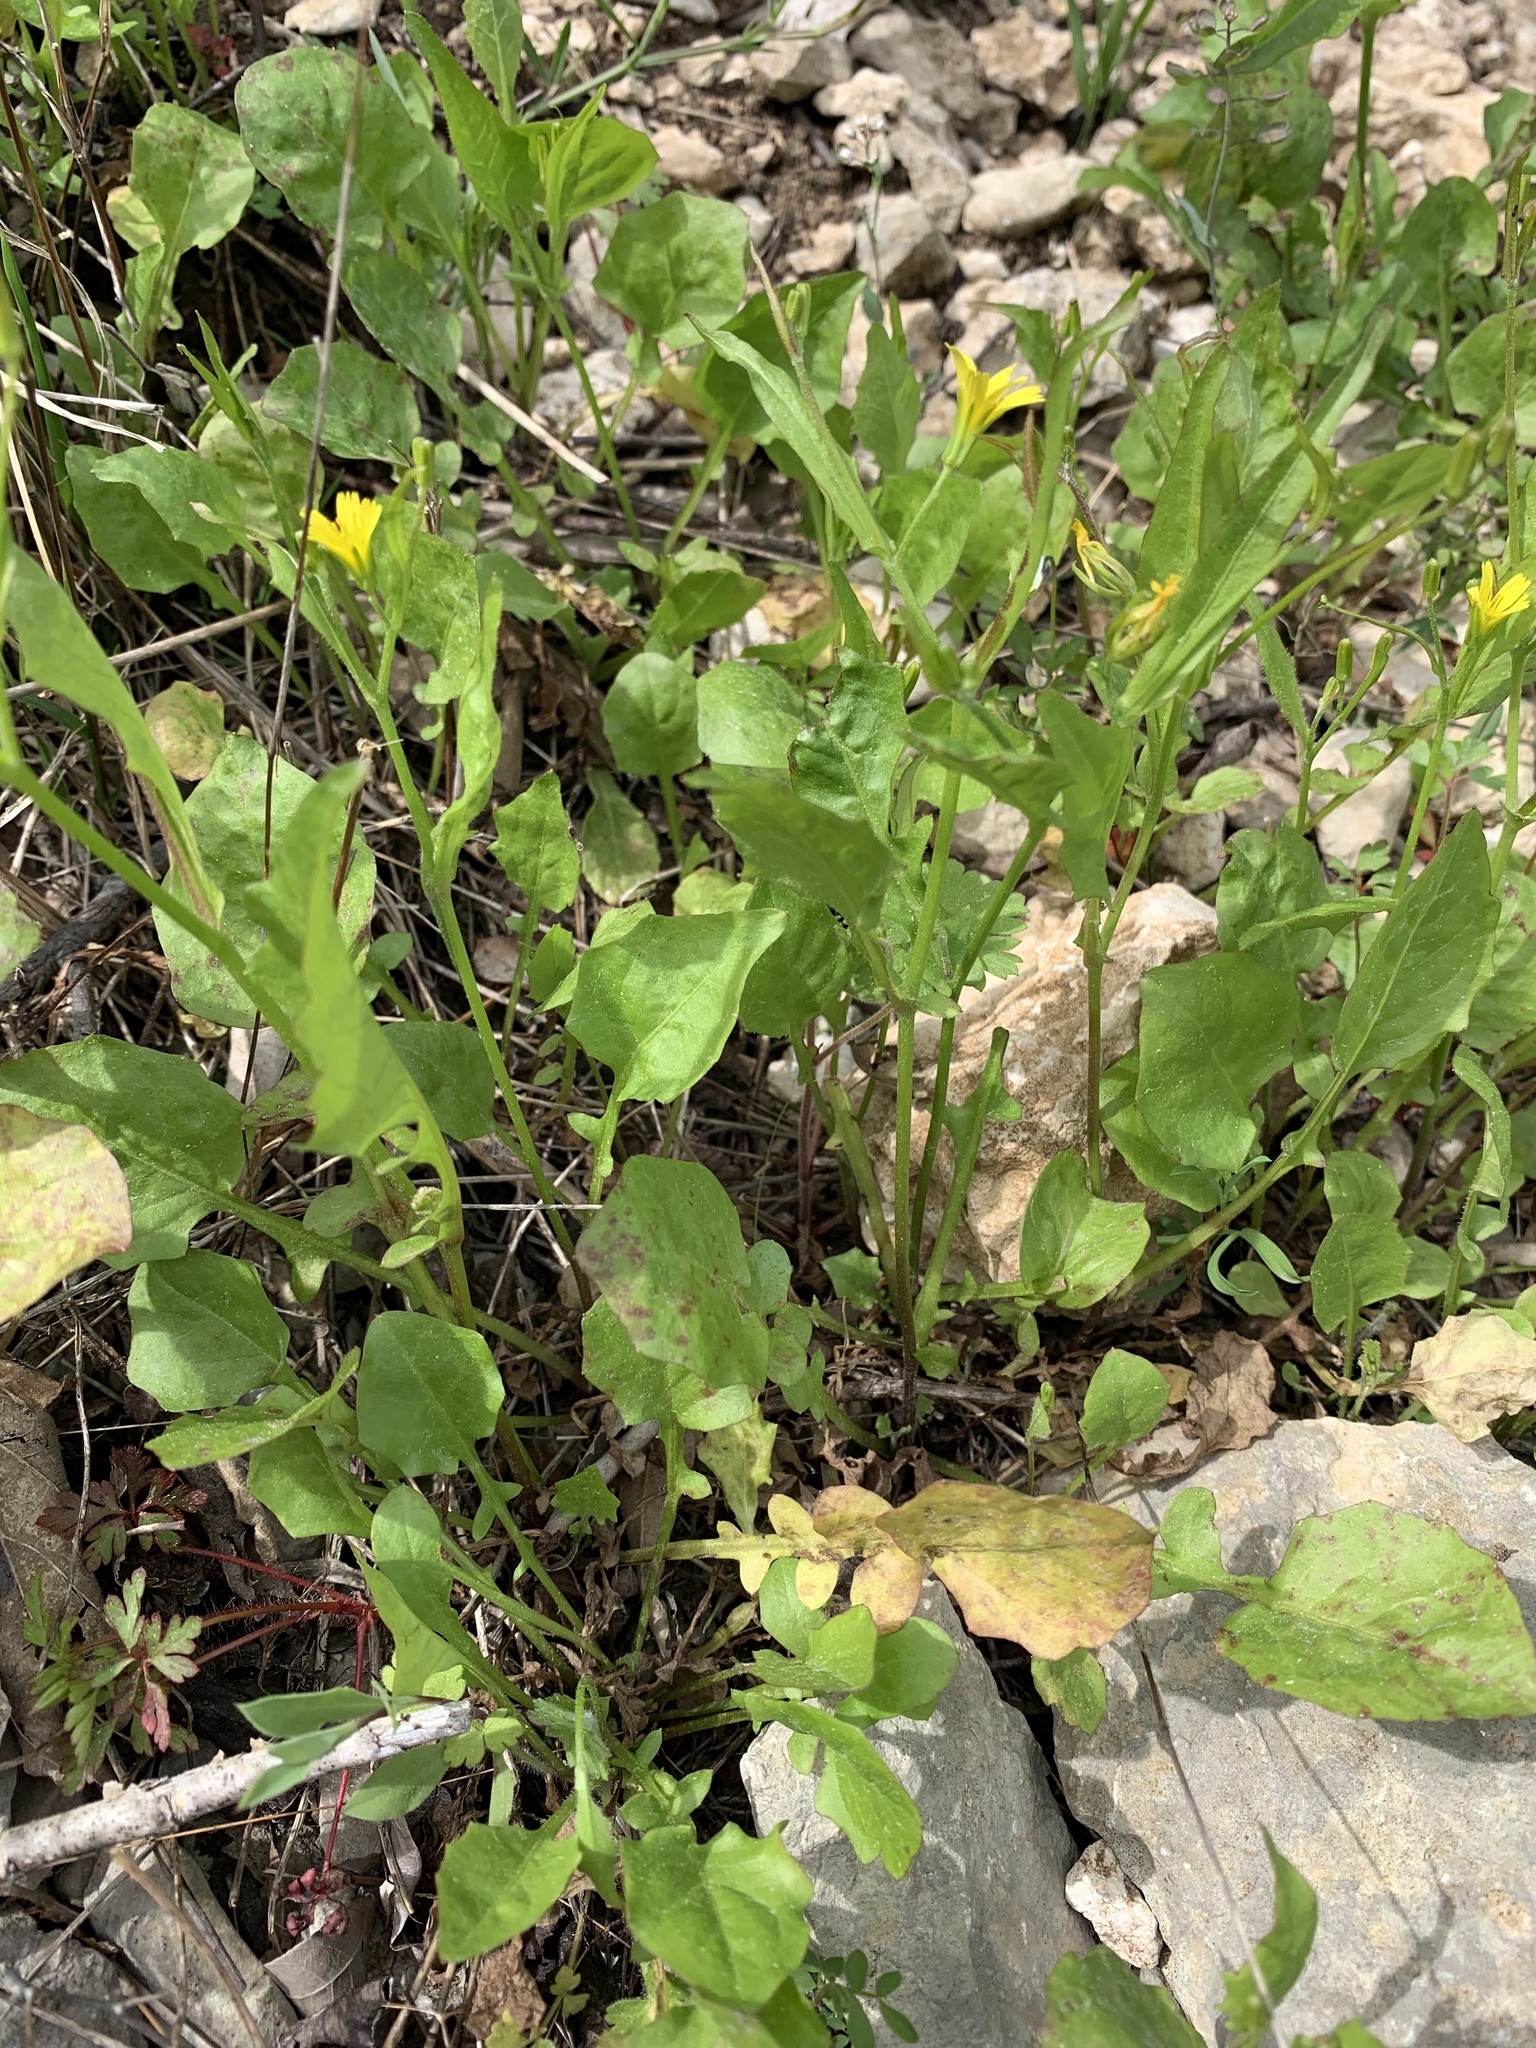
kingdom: Plantae
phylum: Tracheophyta
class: Magnoliopsida
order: Asterales
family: Asteraceae
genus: Rhagadiolus
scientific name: Rhagadiolus stellatus
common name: Star hawkbit
